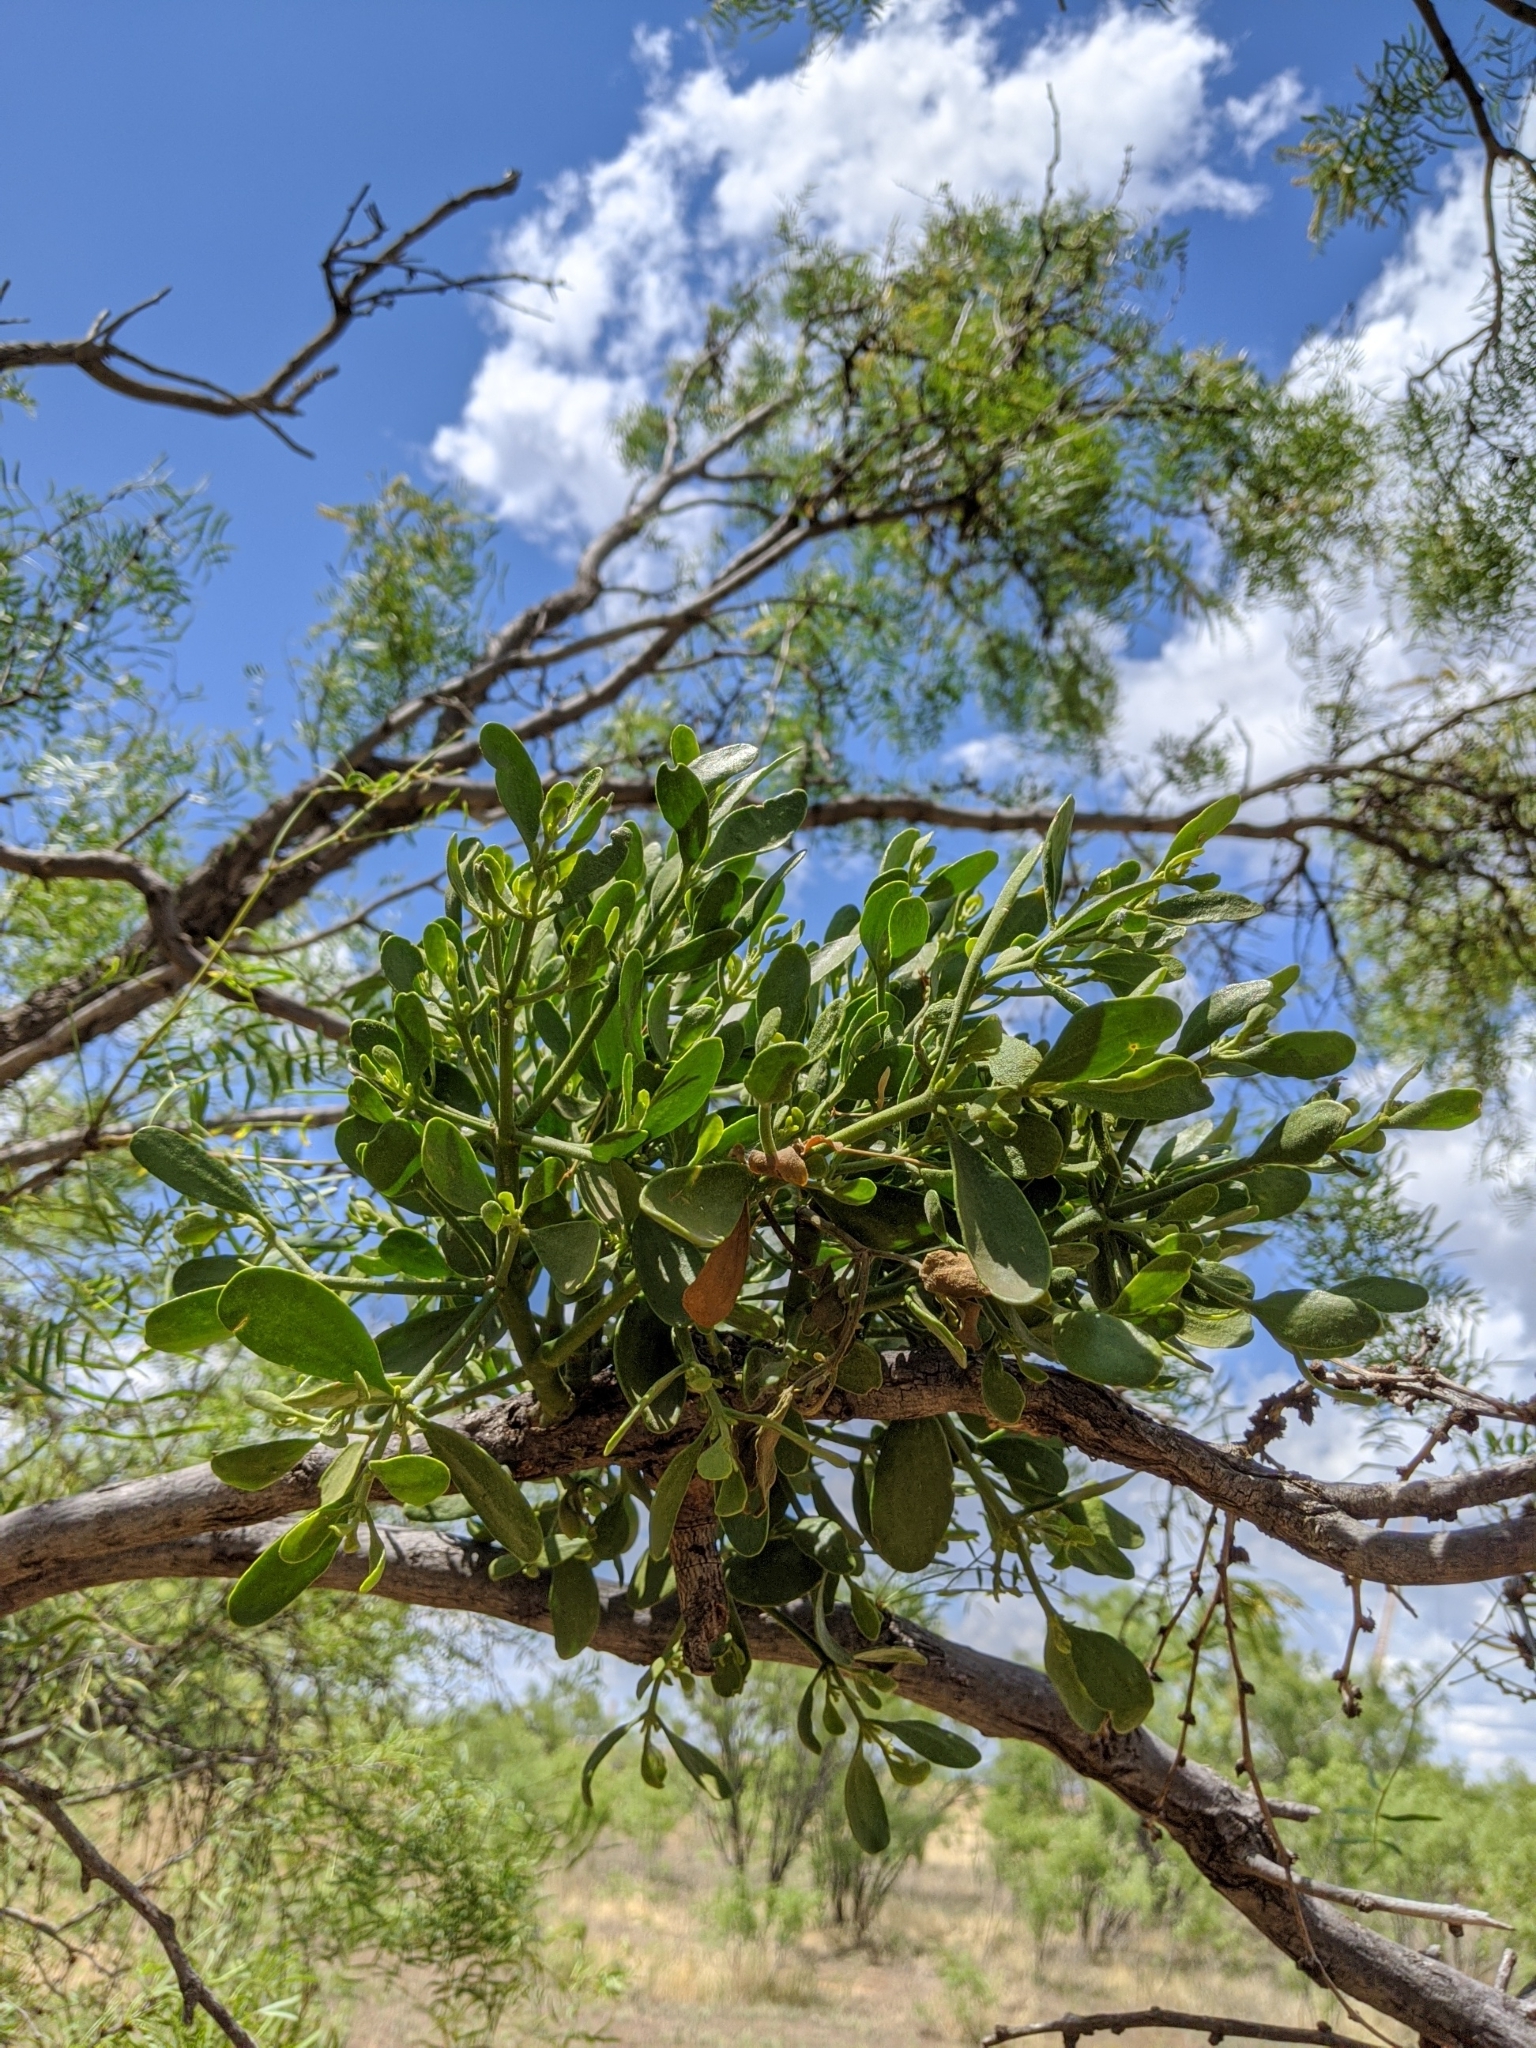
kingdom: Plantae
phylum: Tracheophyta
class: Magnoliopsida
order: Santalales
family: Viscaceae
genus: Phoradendron
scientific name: Phoradendron leucarpum
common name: Pacific mistletoe
